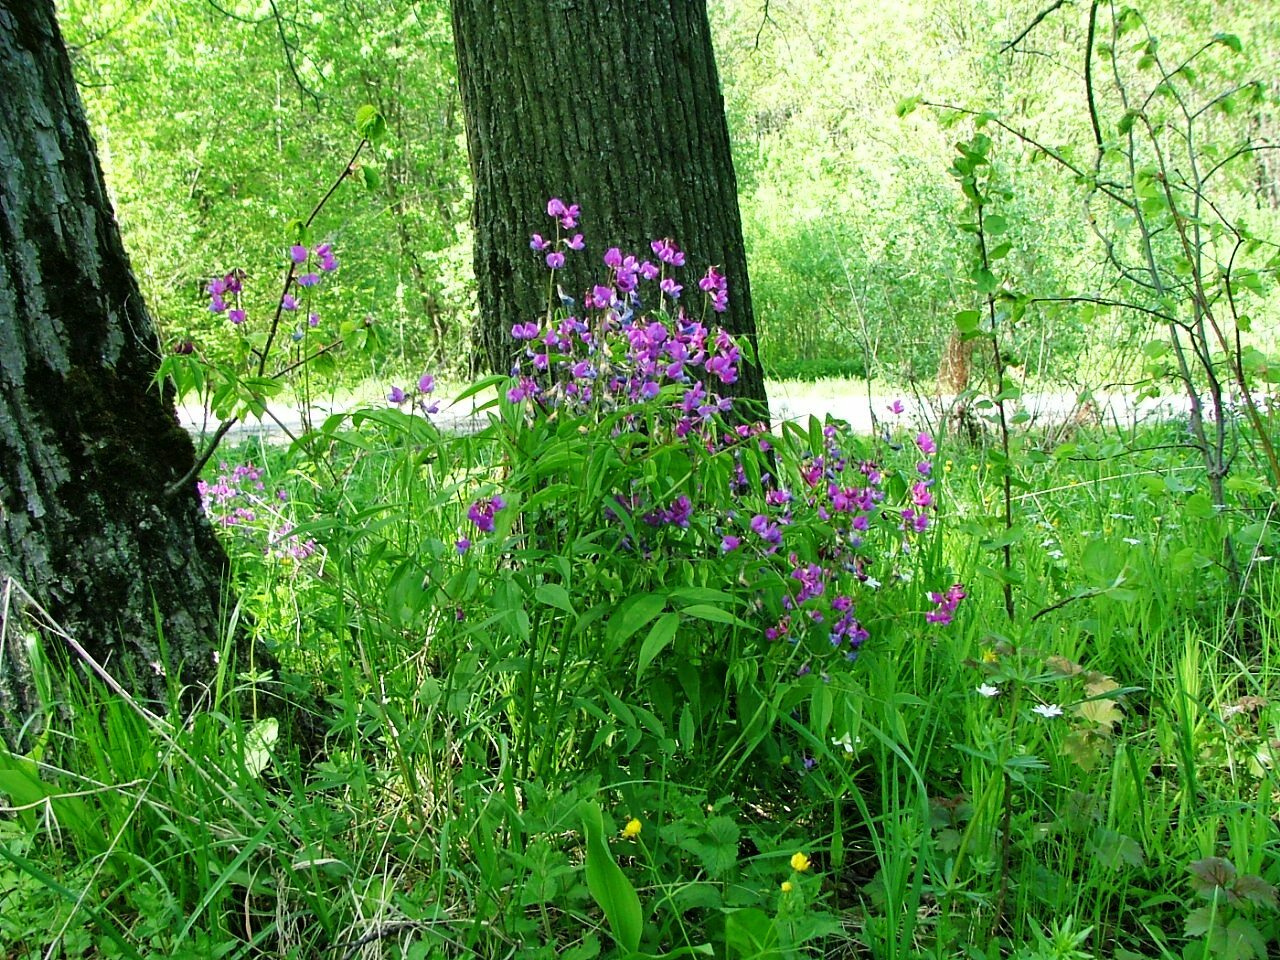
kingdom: Plantae
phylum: Tracheophyta
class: Magnoliopsida
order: Fabales
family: Fabaceae
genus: Lathyrus
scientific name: Lathyrus vernus
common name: Spring pea
